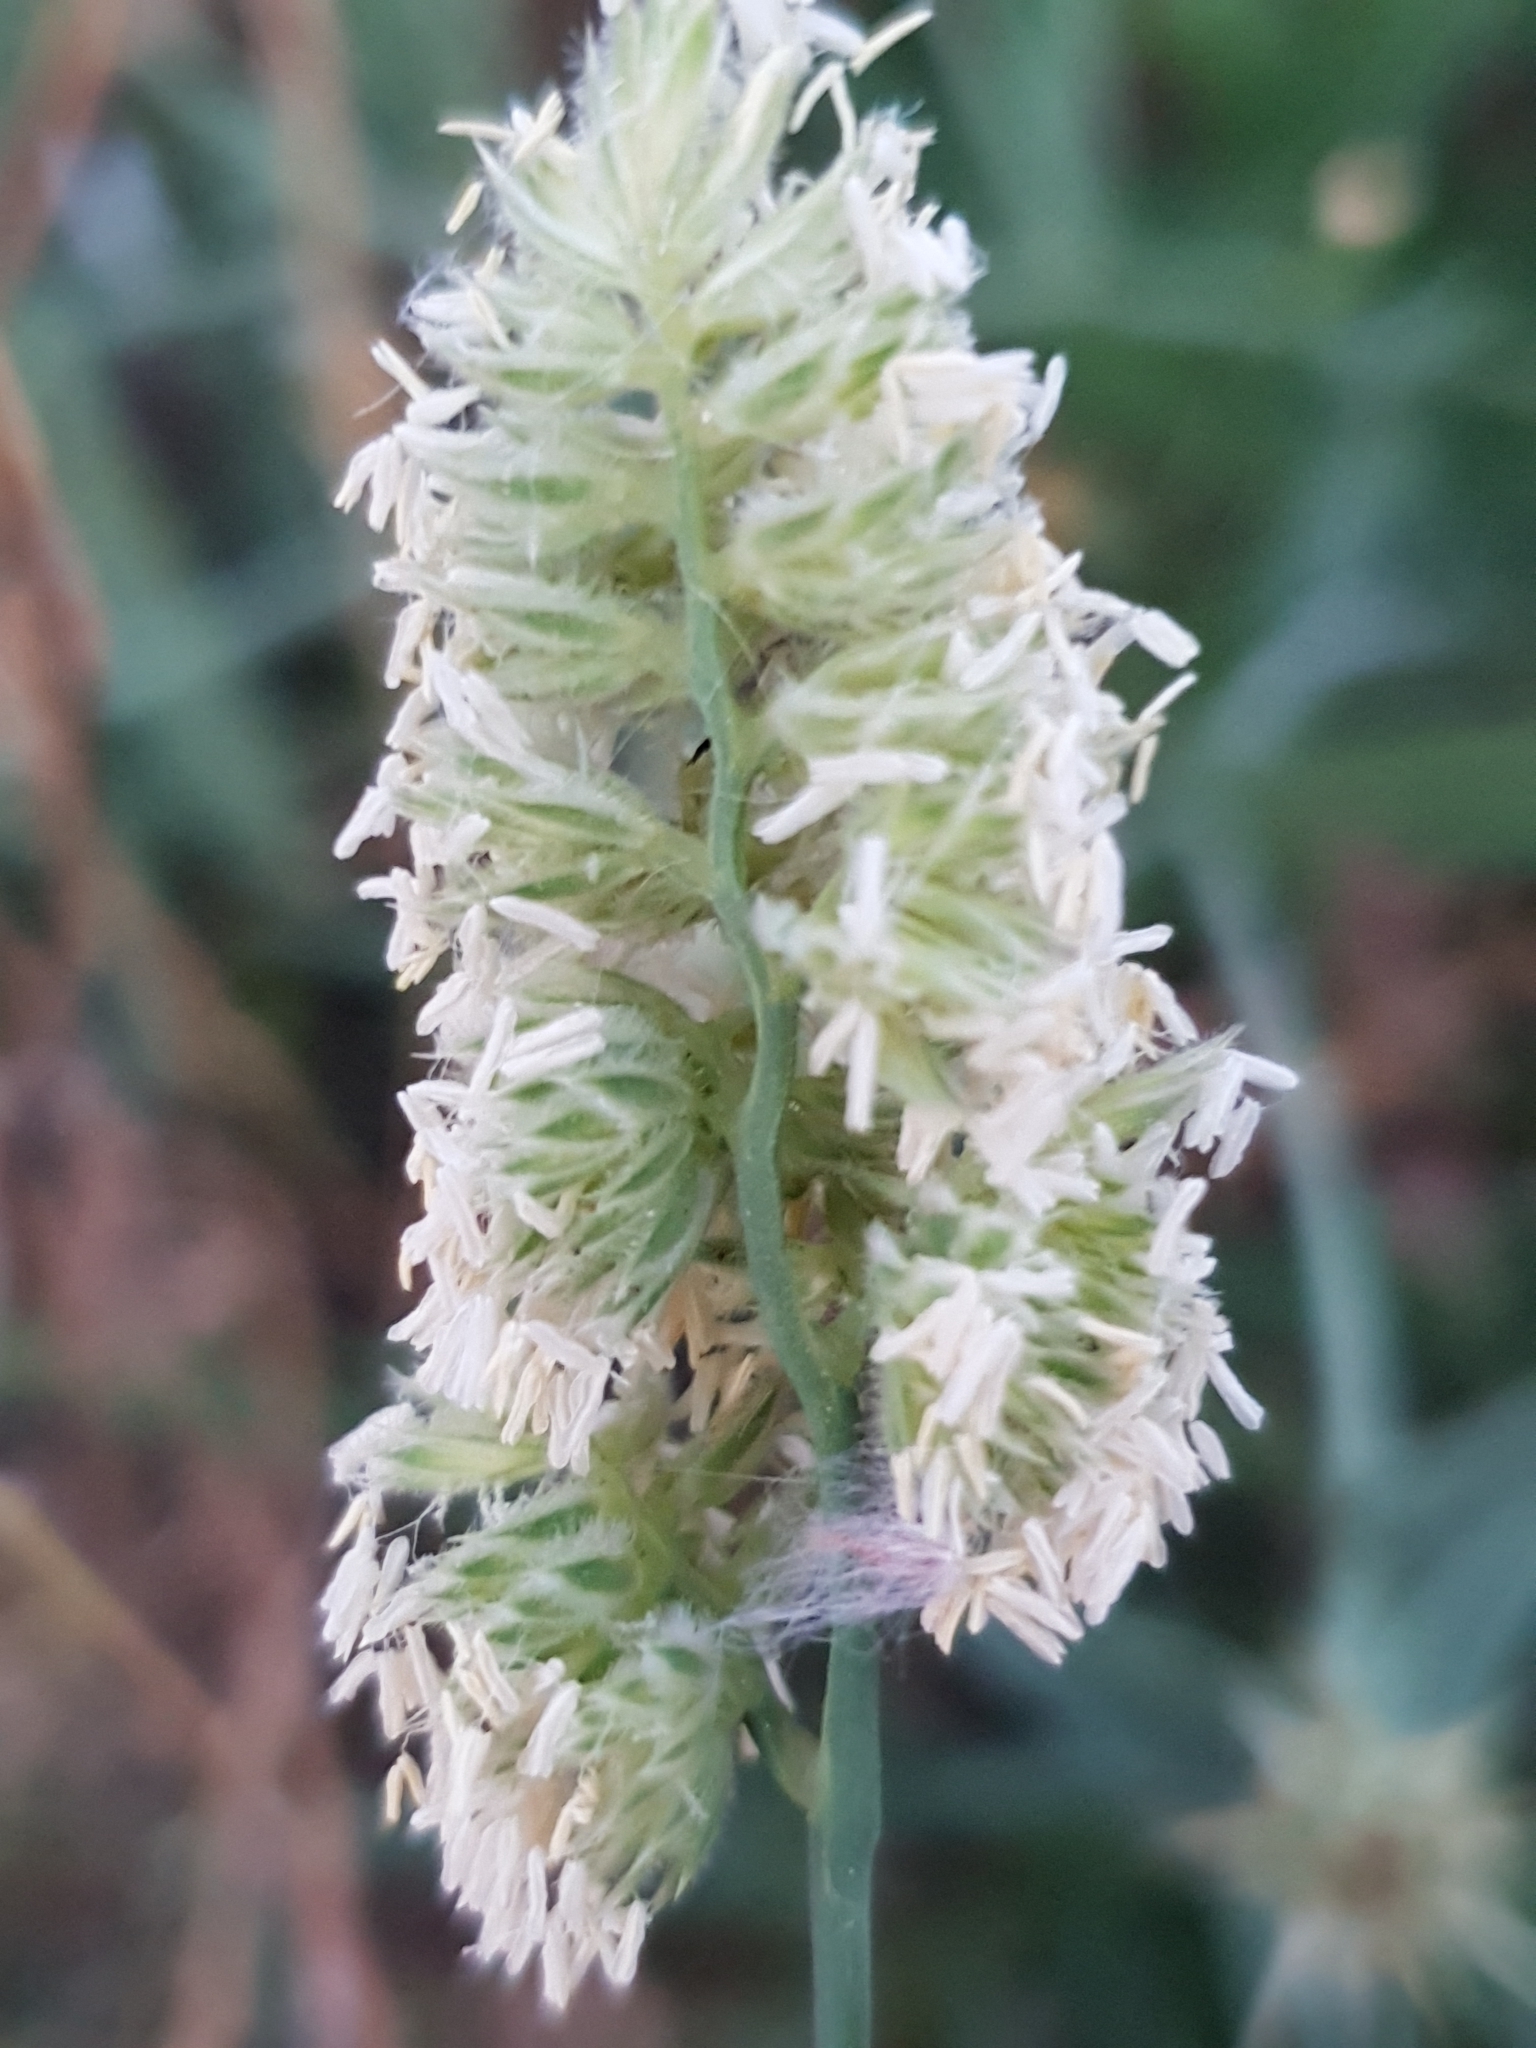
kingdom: Plantae
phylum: Tracheophyta
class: Liliopsida
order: Poales
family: Poaceae
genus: Dactylis
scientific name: Dactylis glomerata
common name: Orchardgrass
